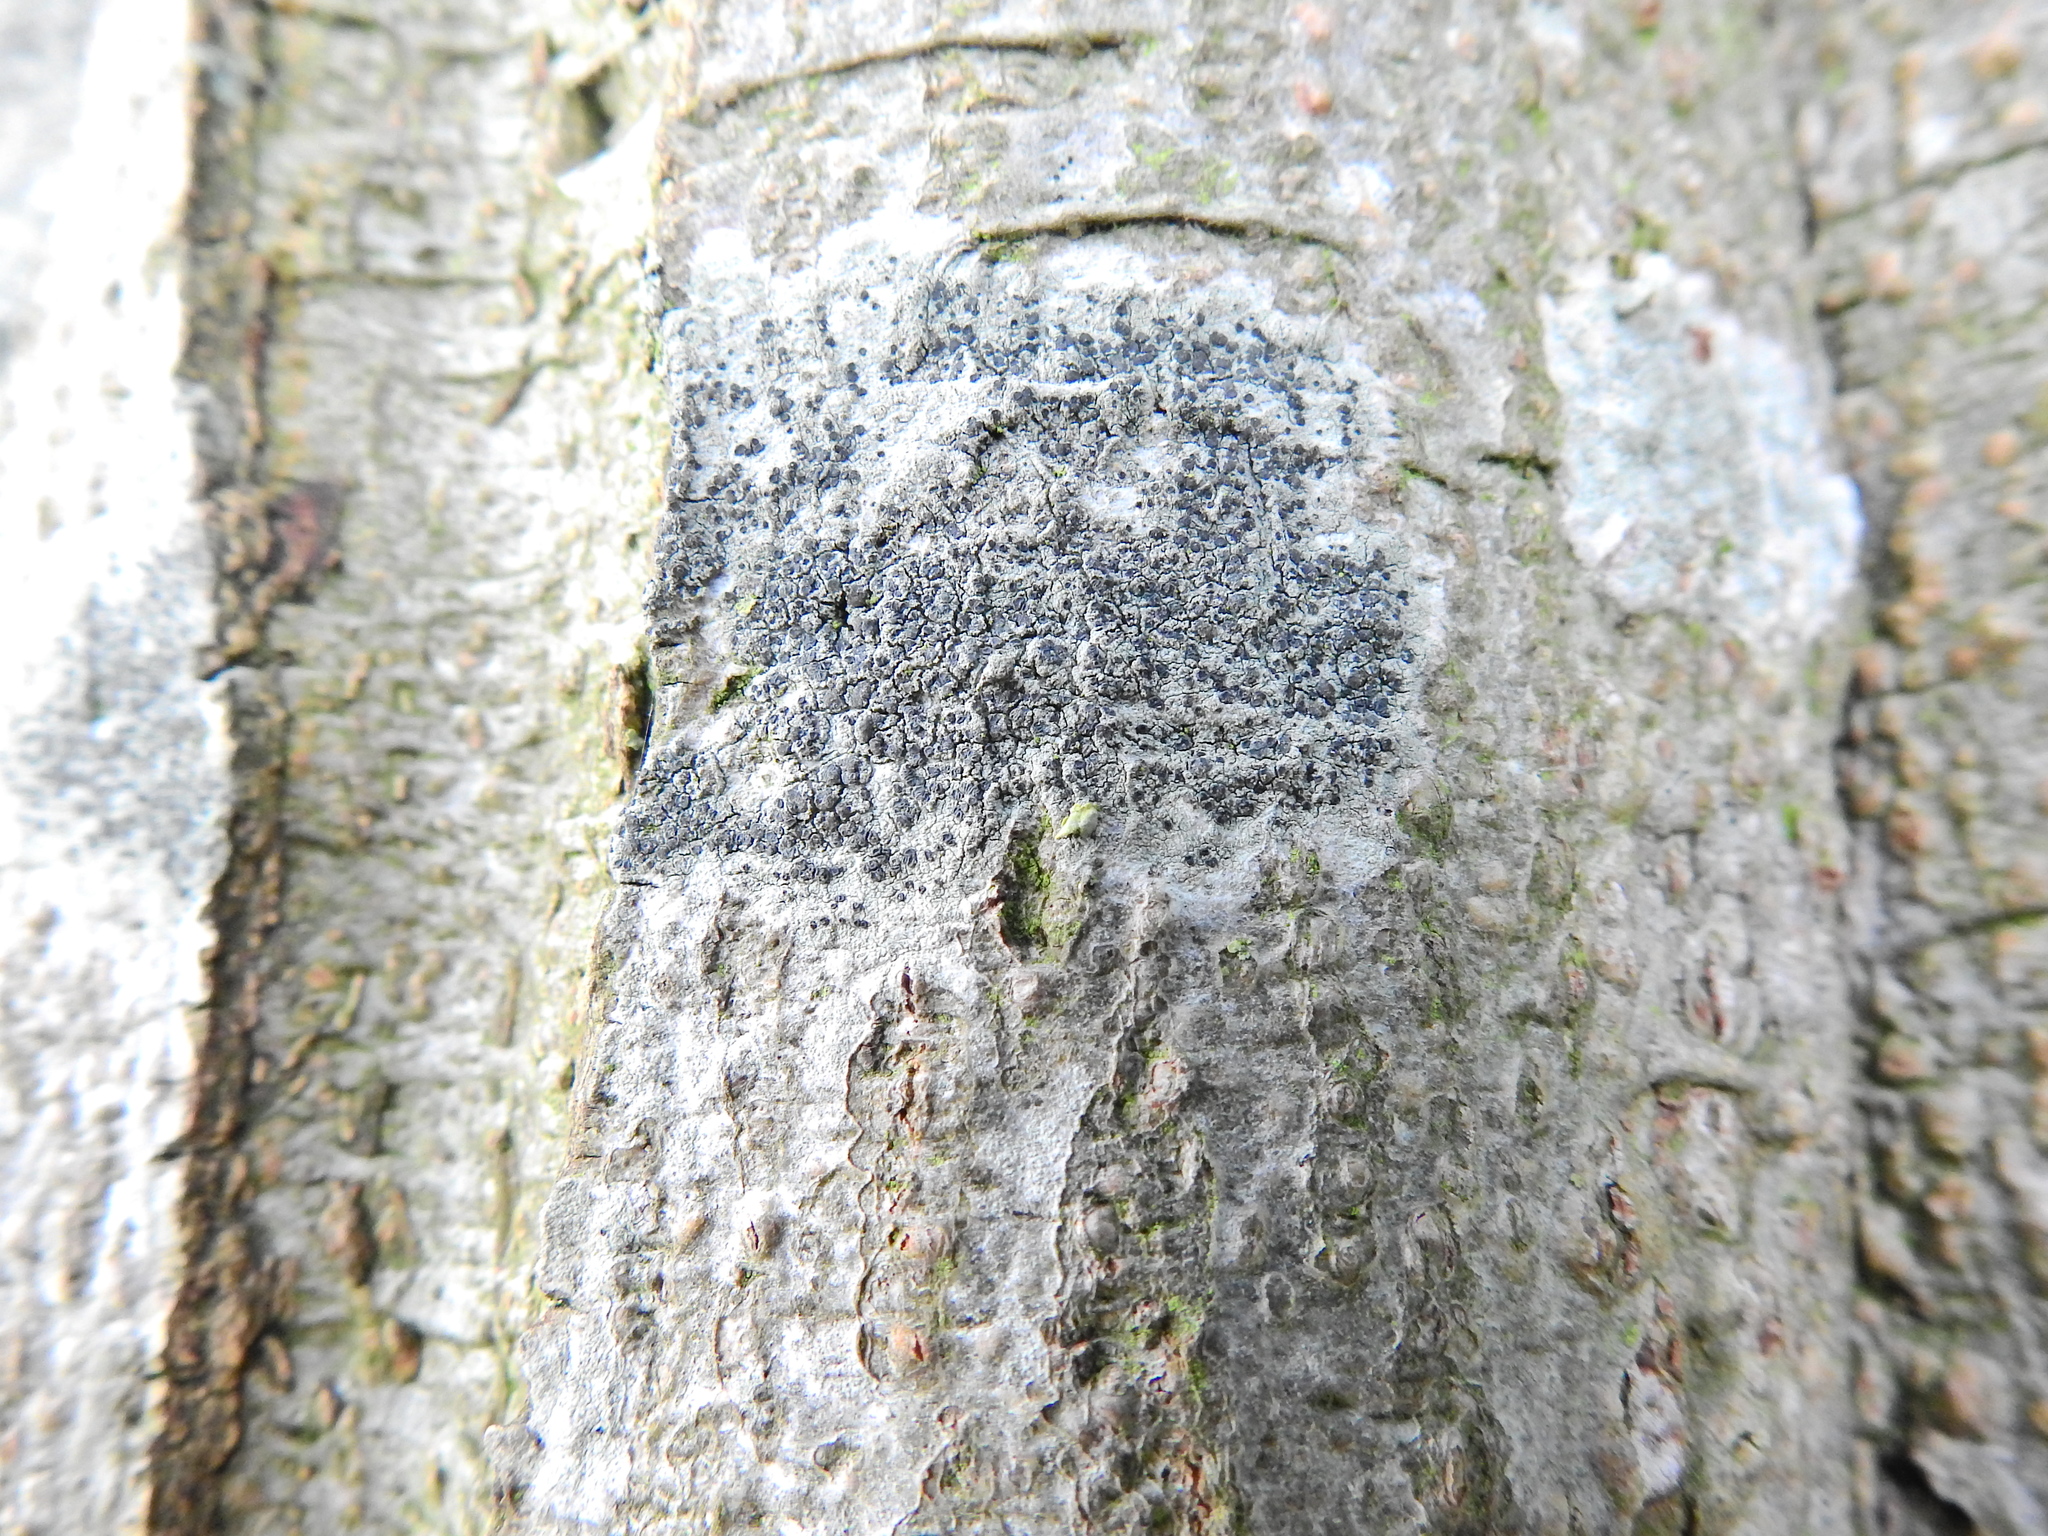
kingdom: Fungi
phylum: Ascomycota
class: Lecanoromycetes
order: Lecanorales
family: Lecanoraceae
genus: Lecidella
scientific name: Lecidella elaeochroma
